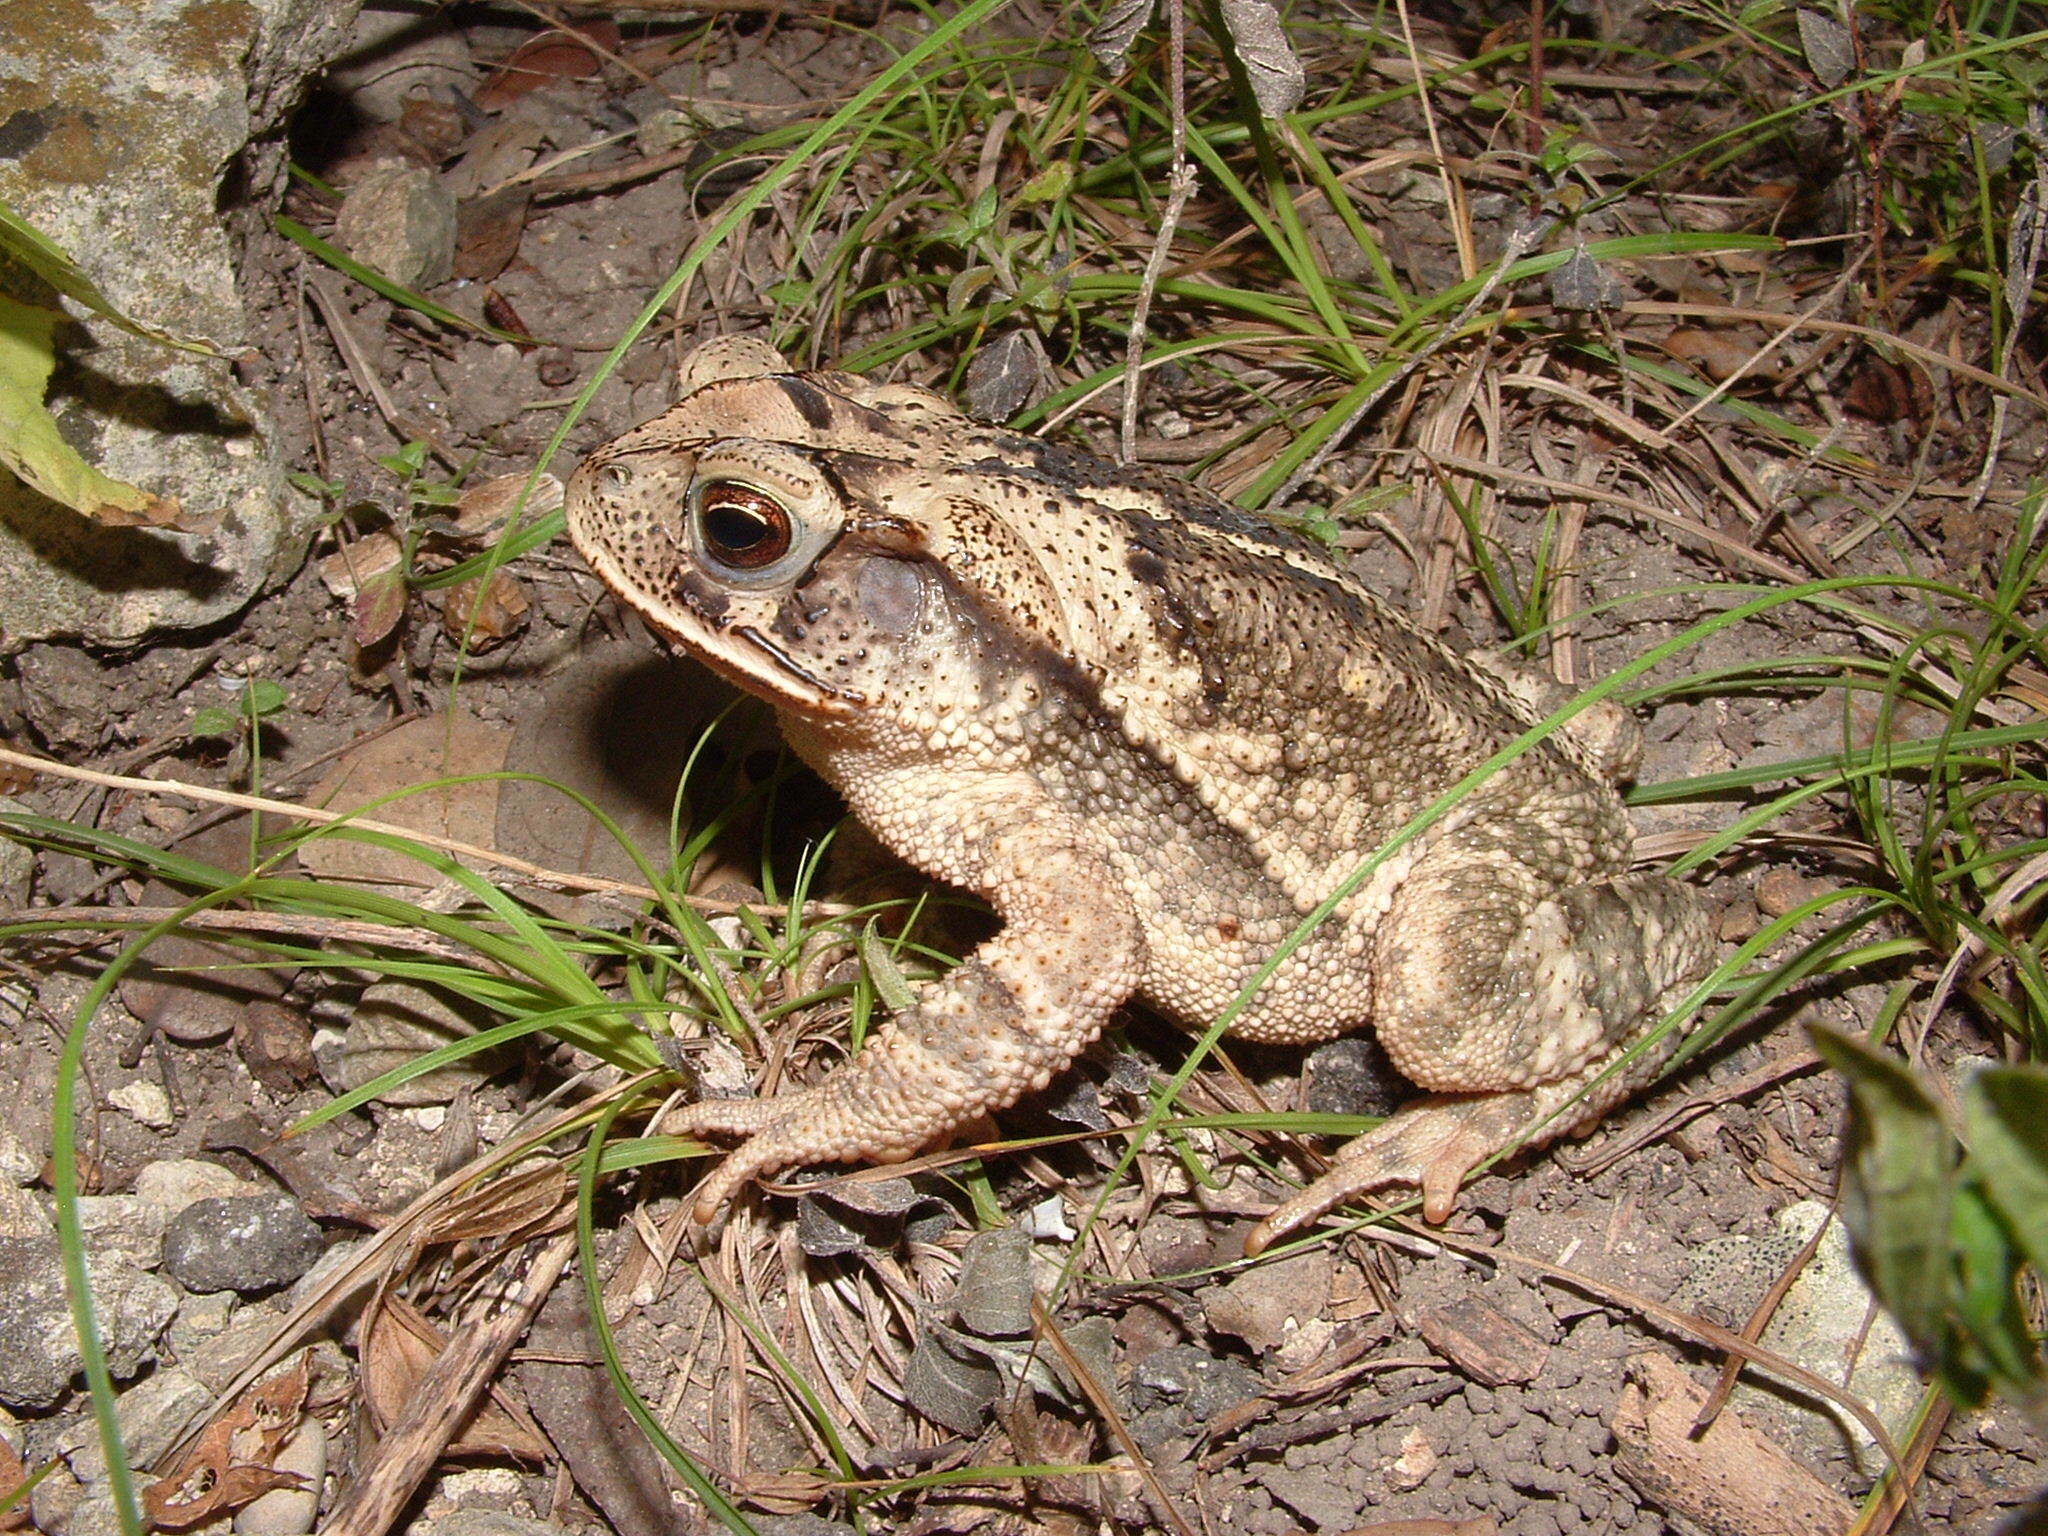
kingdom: Animalia
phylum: Chordata
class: Amphibia
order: Anura
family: Bufonidae
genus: Incilius
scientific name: Incilius nebulifer
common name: Gulf coast toad
